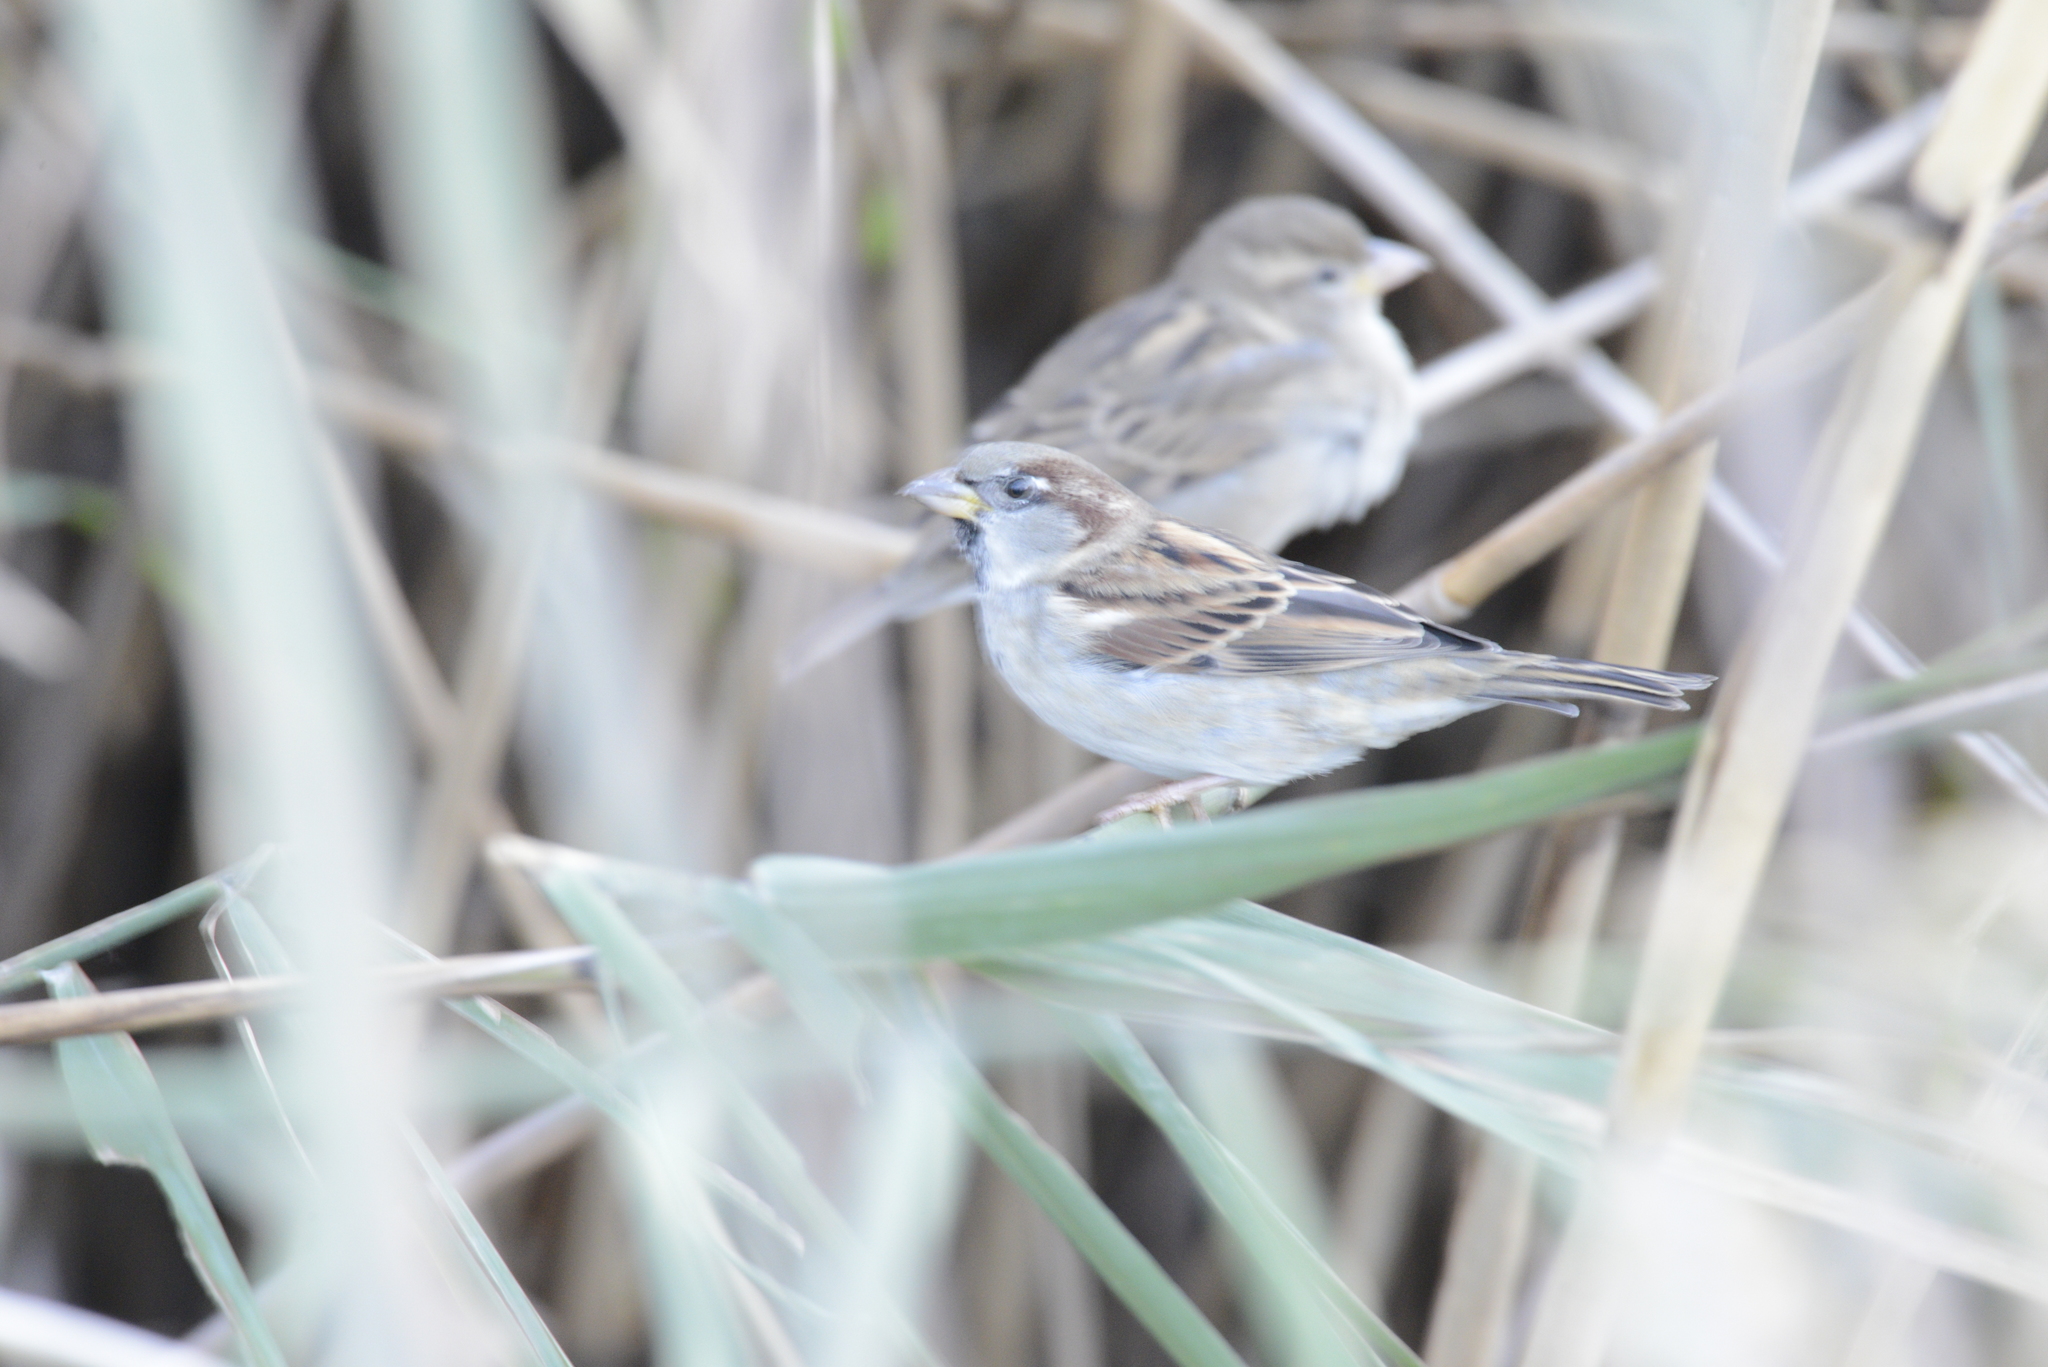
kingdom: Animalia
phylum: Chordata
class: Aves
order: Passeriformes
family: Passeridae
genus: Passer
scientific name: Passer domesticus
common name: House sparrow
